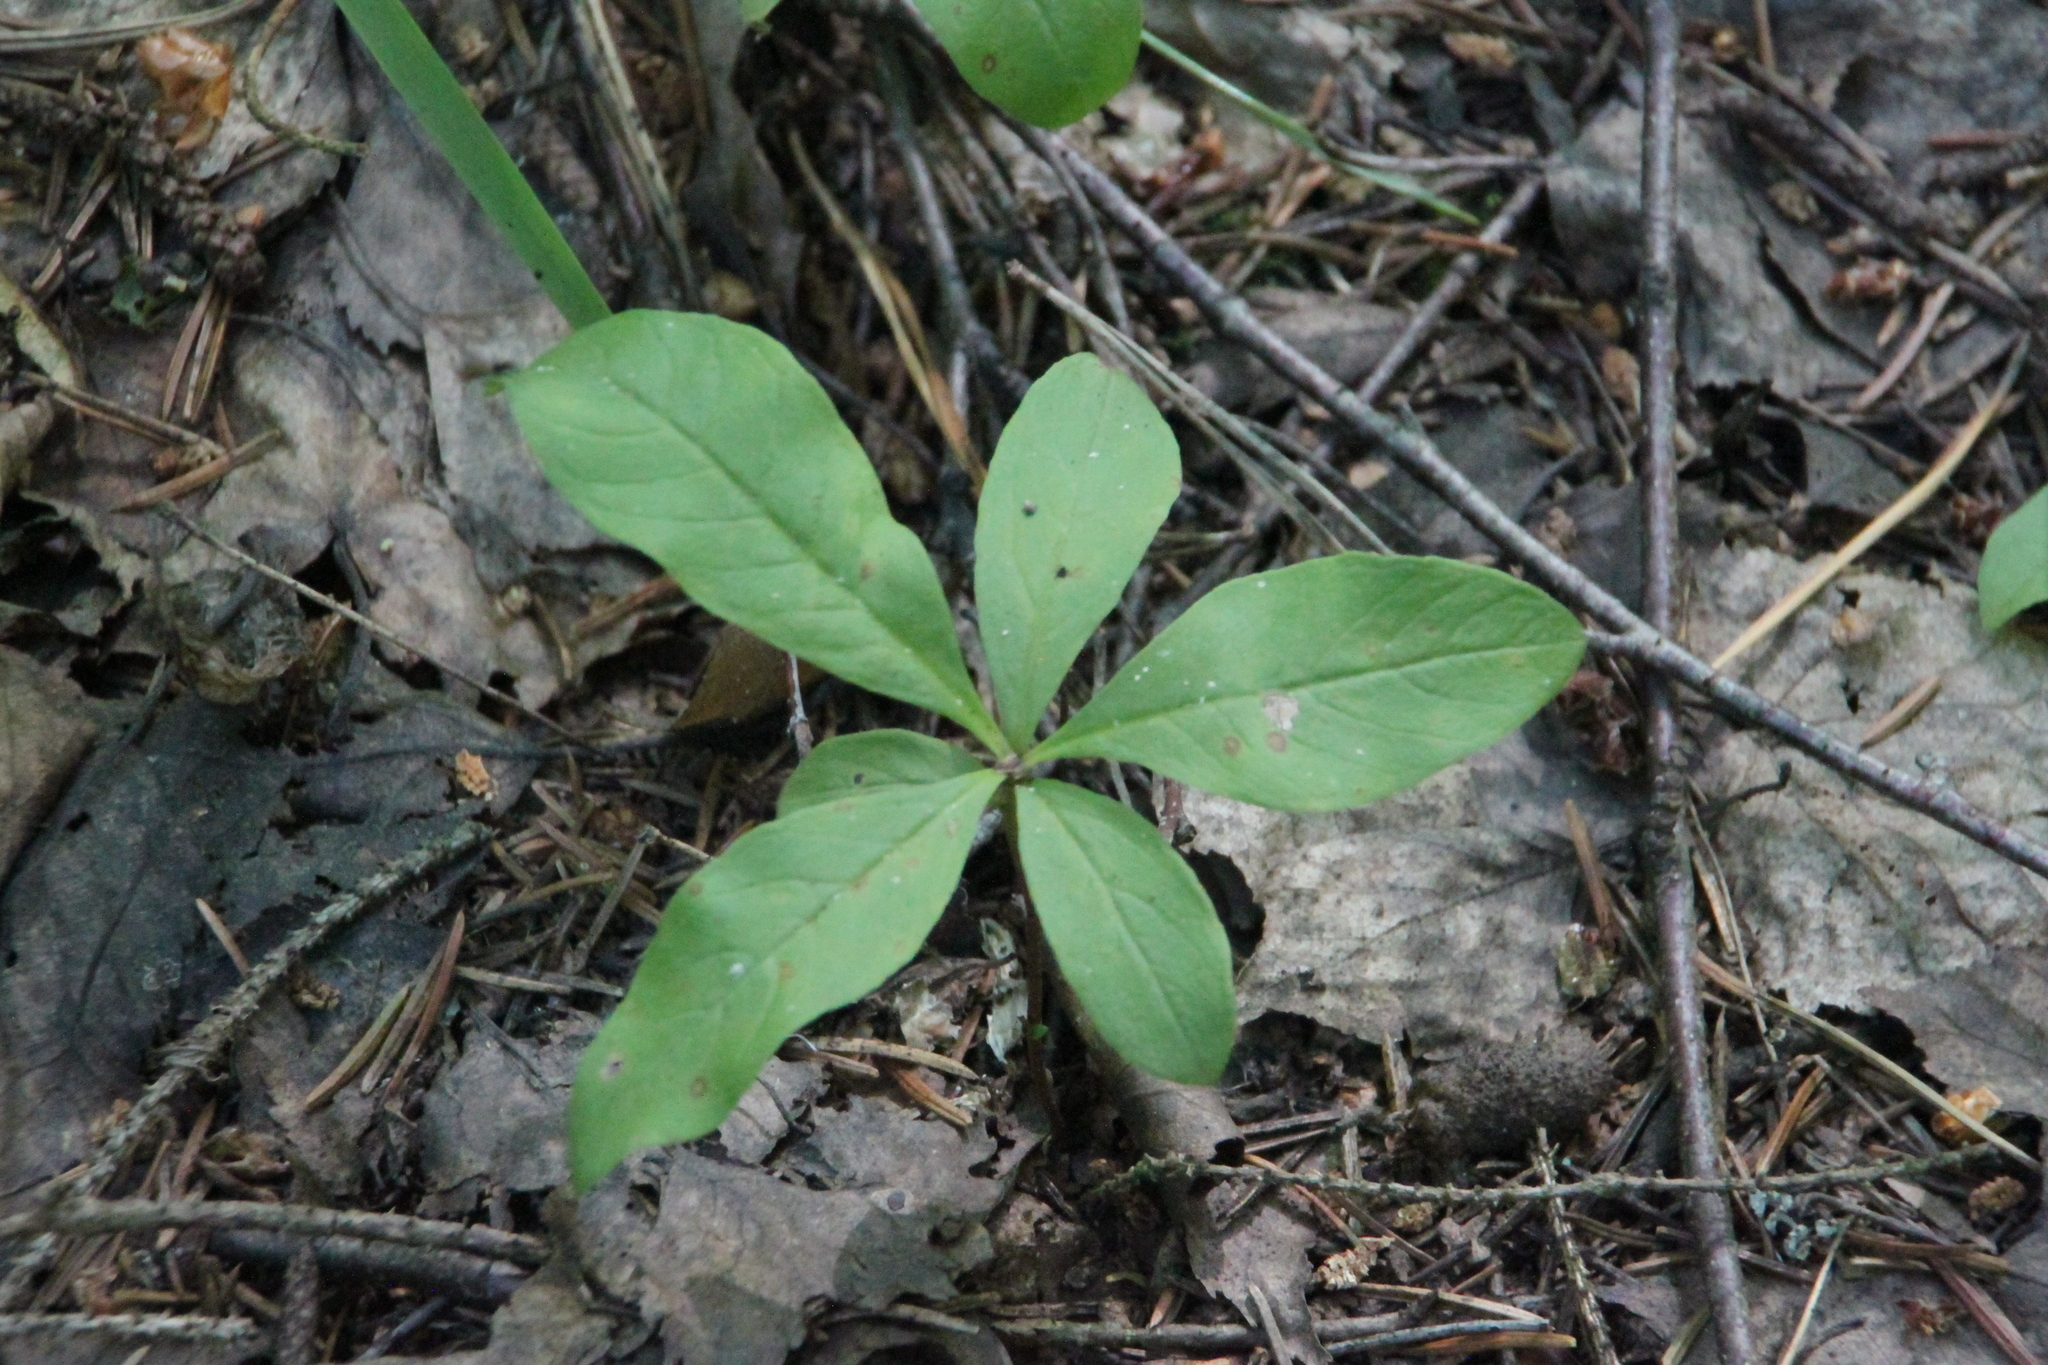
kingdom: Plantae
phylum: Tracheophyta
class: Magnoliopsida
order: Ericales
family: Primulaceae
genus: Lysimachia
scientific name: Lysimachia europaea
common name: Arctic starflower
